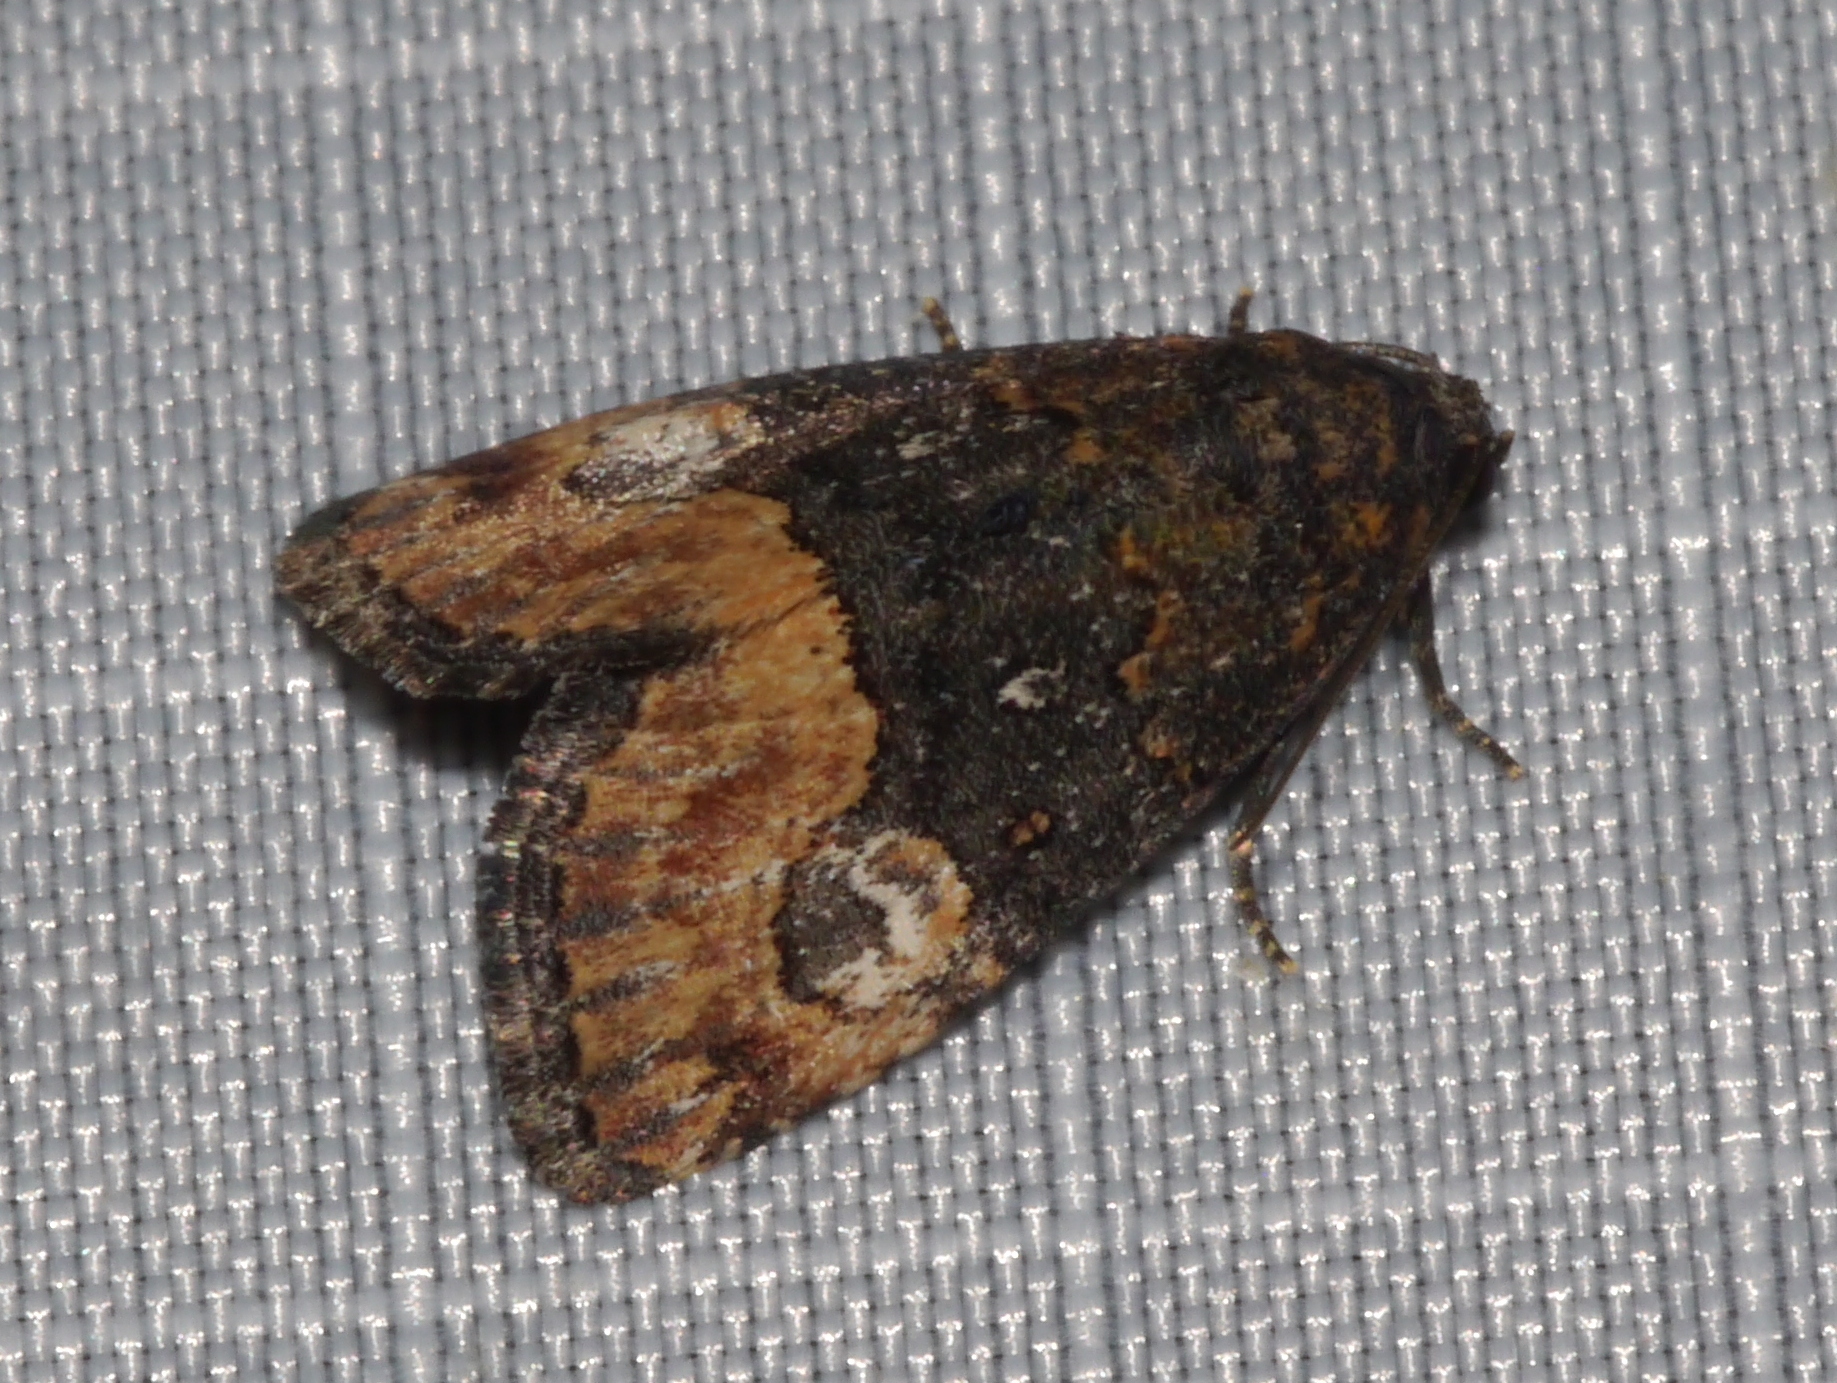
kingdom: Animalia
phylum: Arthropoda
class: Insecta
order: Lepidoptera
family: Noctuidae
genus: Ozarba
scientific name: Ozarba propera
